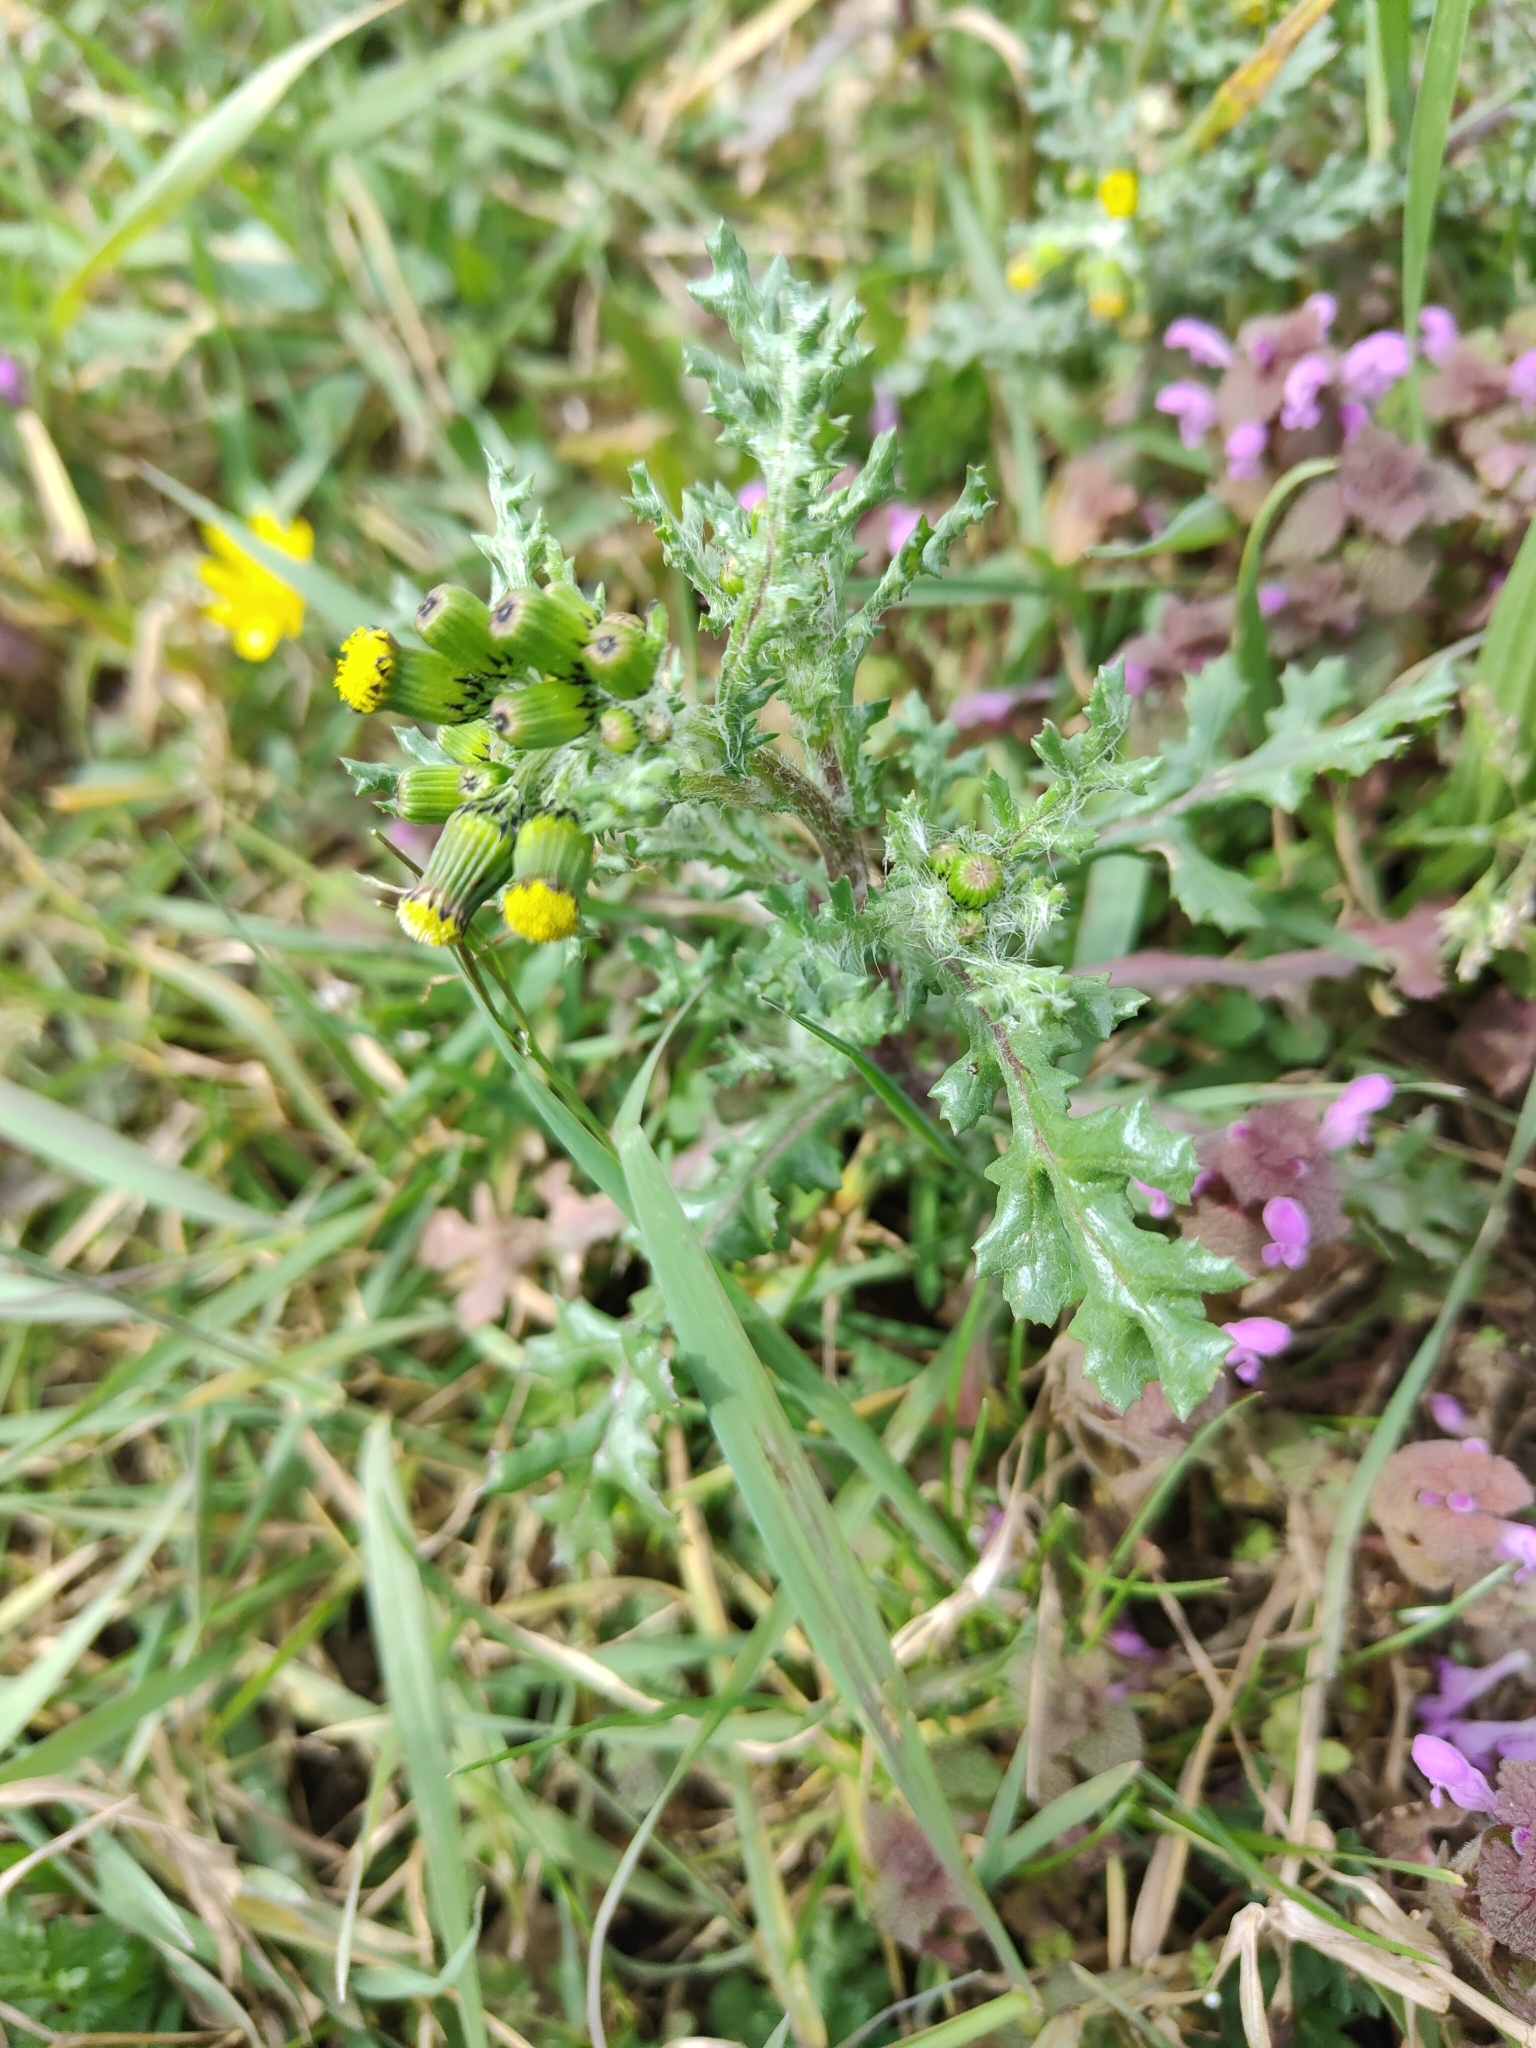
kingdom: Plantae
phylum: Tracheophyta
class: Magnoliopsida
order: Asterales
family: Asteraceae
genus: Senecio
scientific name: Senecio vulgaris
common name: Old-man-in-the-spring
